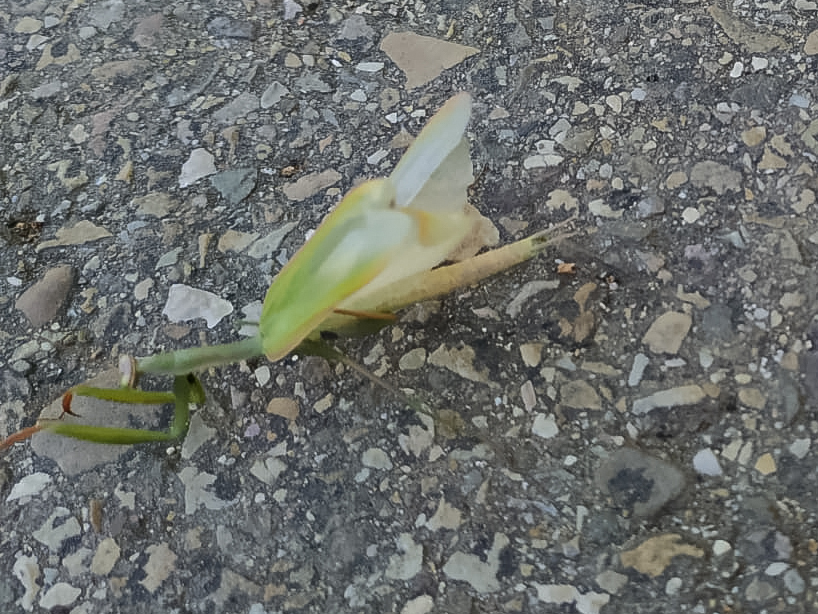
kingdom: Animalia
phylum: Arthropoda
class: Insecta
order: Mantodea
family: Mantidae
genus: Mantis
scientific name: Mantis religiosa
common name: Praying mantis
